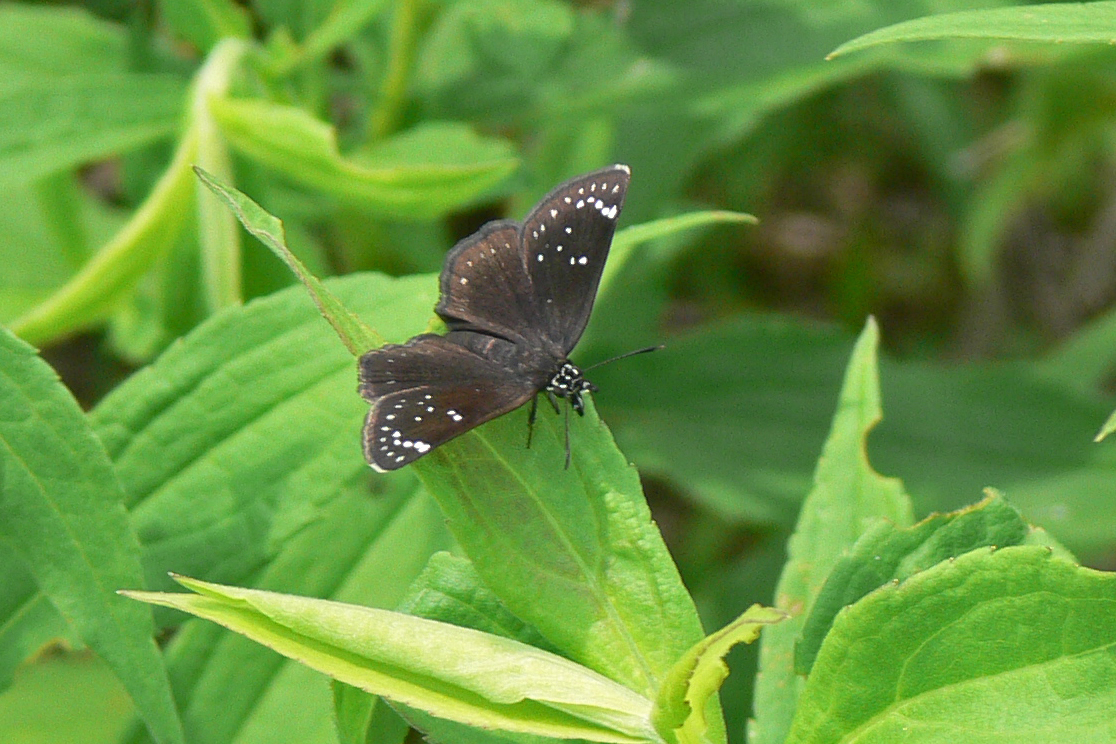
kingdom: Animalia
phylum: Arthropoda
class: Insecta
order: Lepidoptera
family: Hesperiidae
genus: Pholisora
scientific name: Pholisora catullus
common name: Common sootywing
